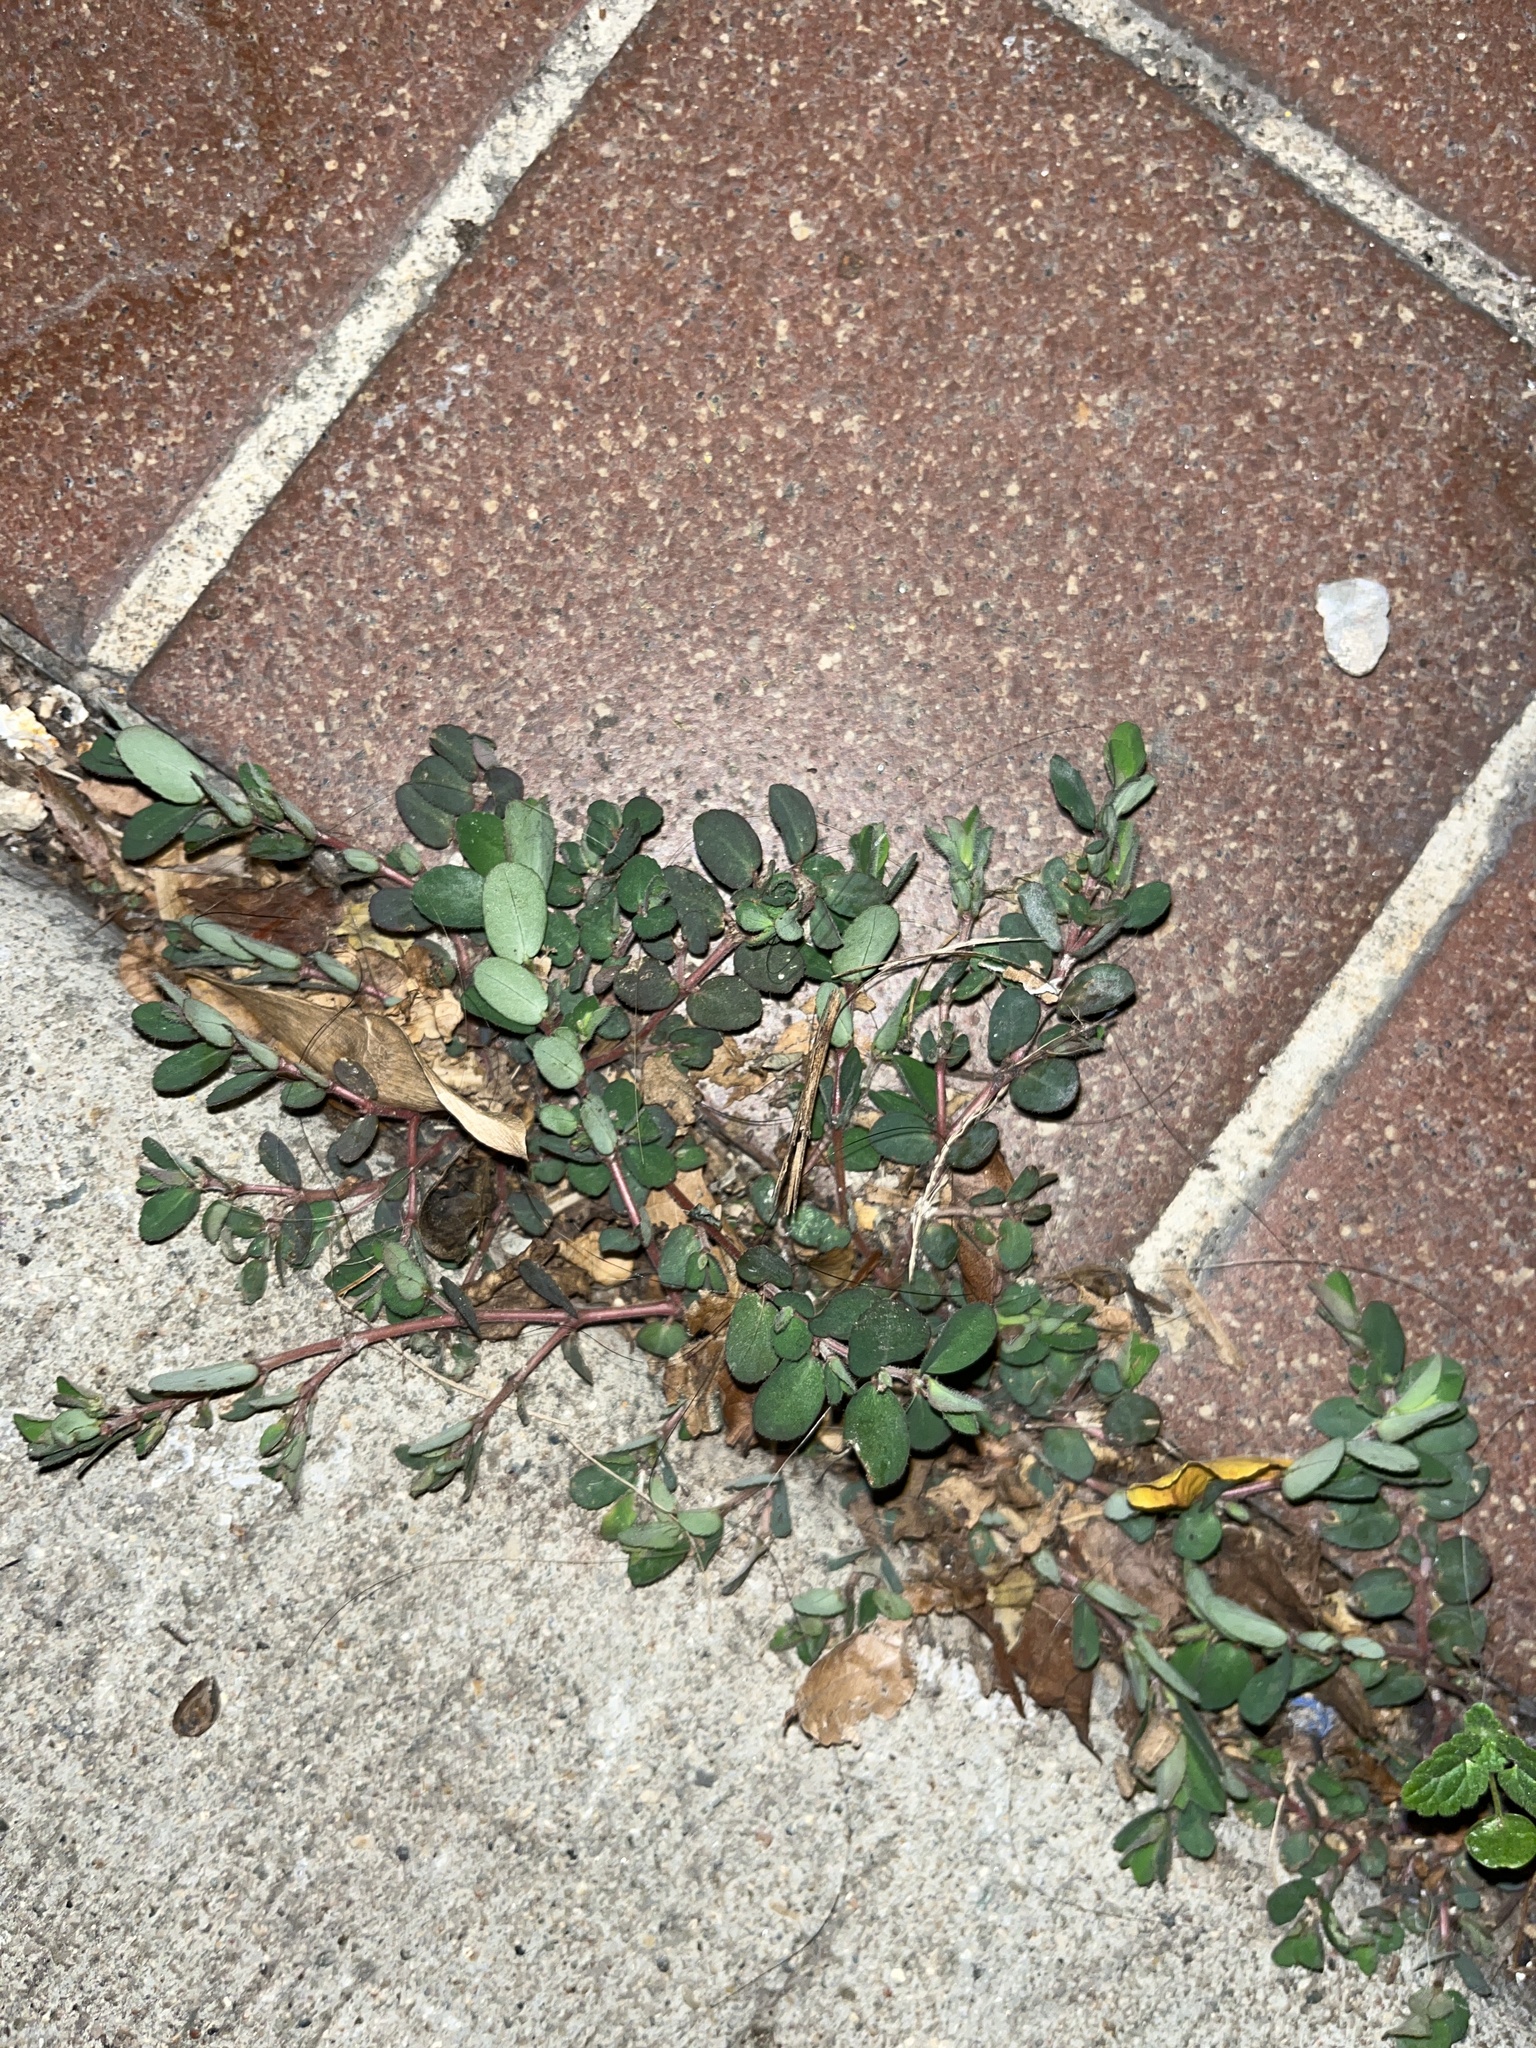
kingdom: Plantae
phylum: Tracheophyta
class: Magnoliopsida
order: Malpighiales
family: Euphorbiaceae
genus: Euphorbia
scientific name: Euphorbia prostrata
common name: Prostrate sandmat
